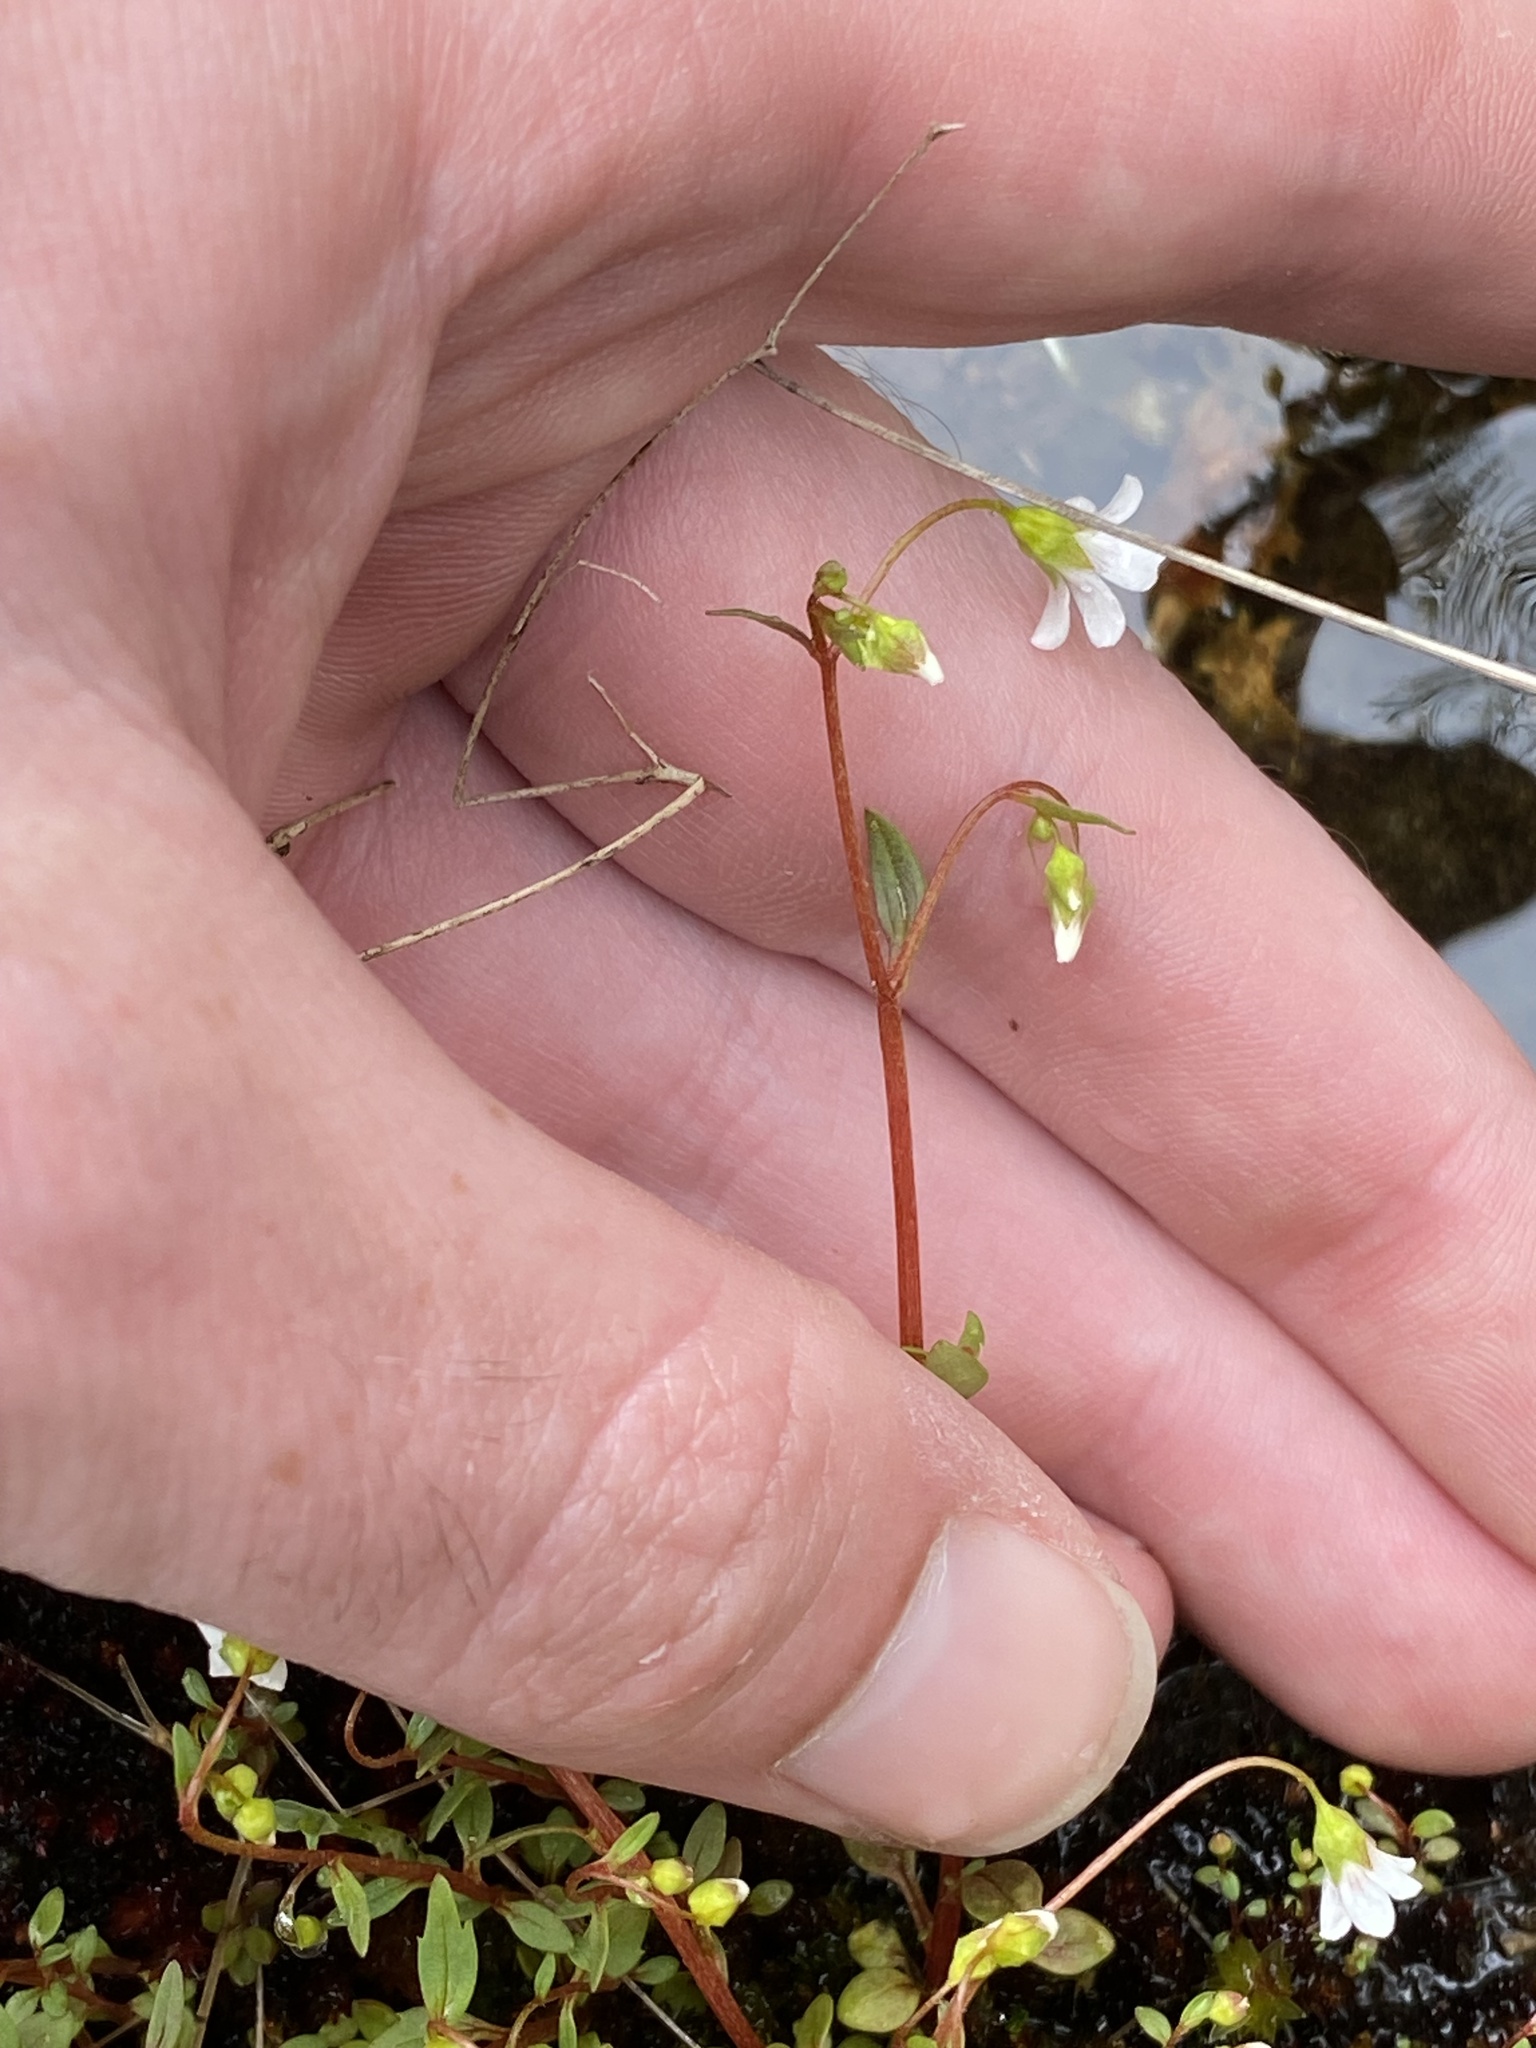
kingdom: Plantae
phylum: Tracheophyta
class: Magnoliopsida
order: Saxifragales
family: Saxifragaceae
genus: Cascadia
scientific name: Cascadia nuttallii
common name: Nuttall's saxifrage
